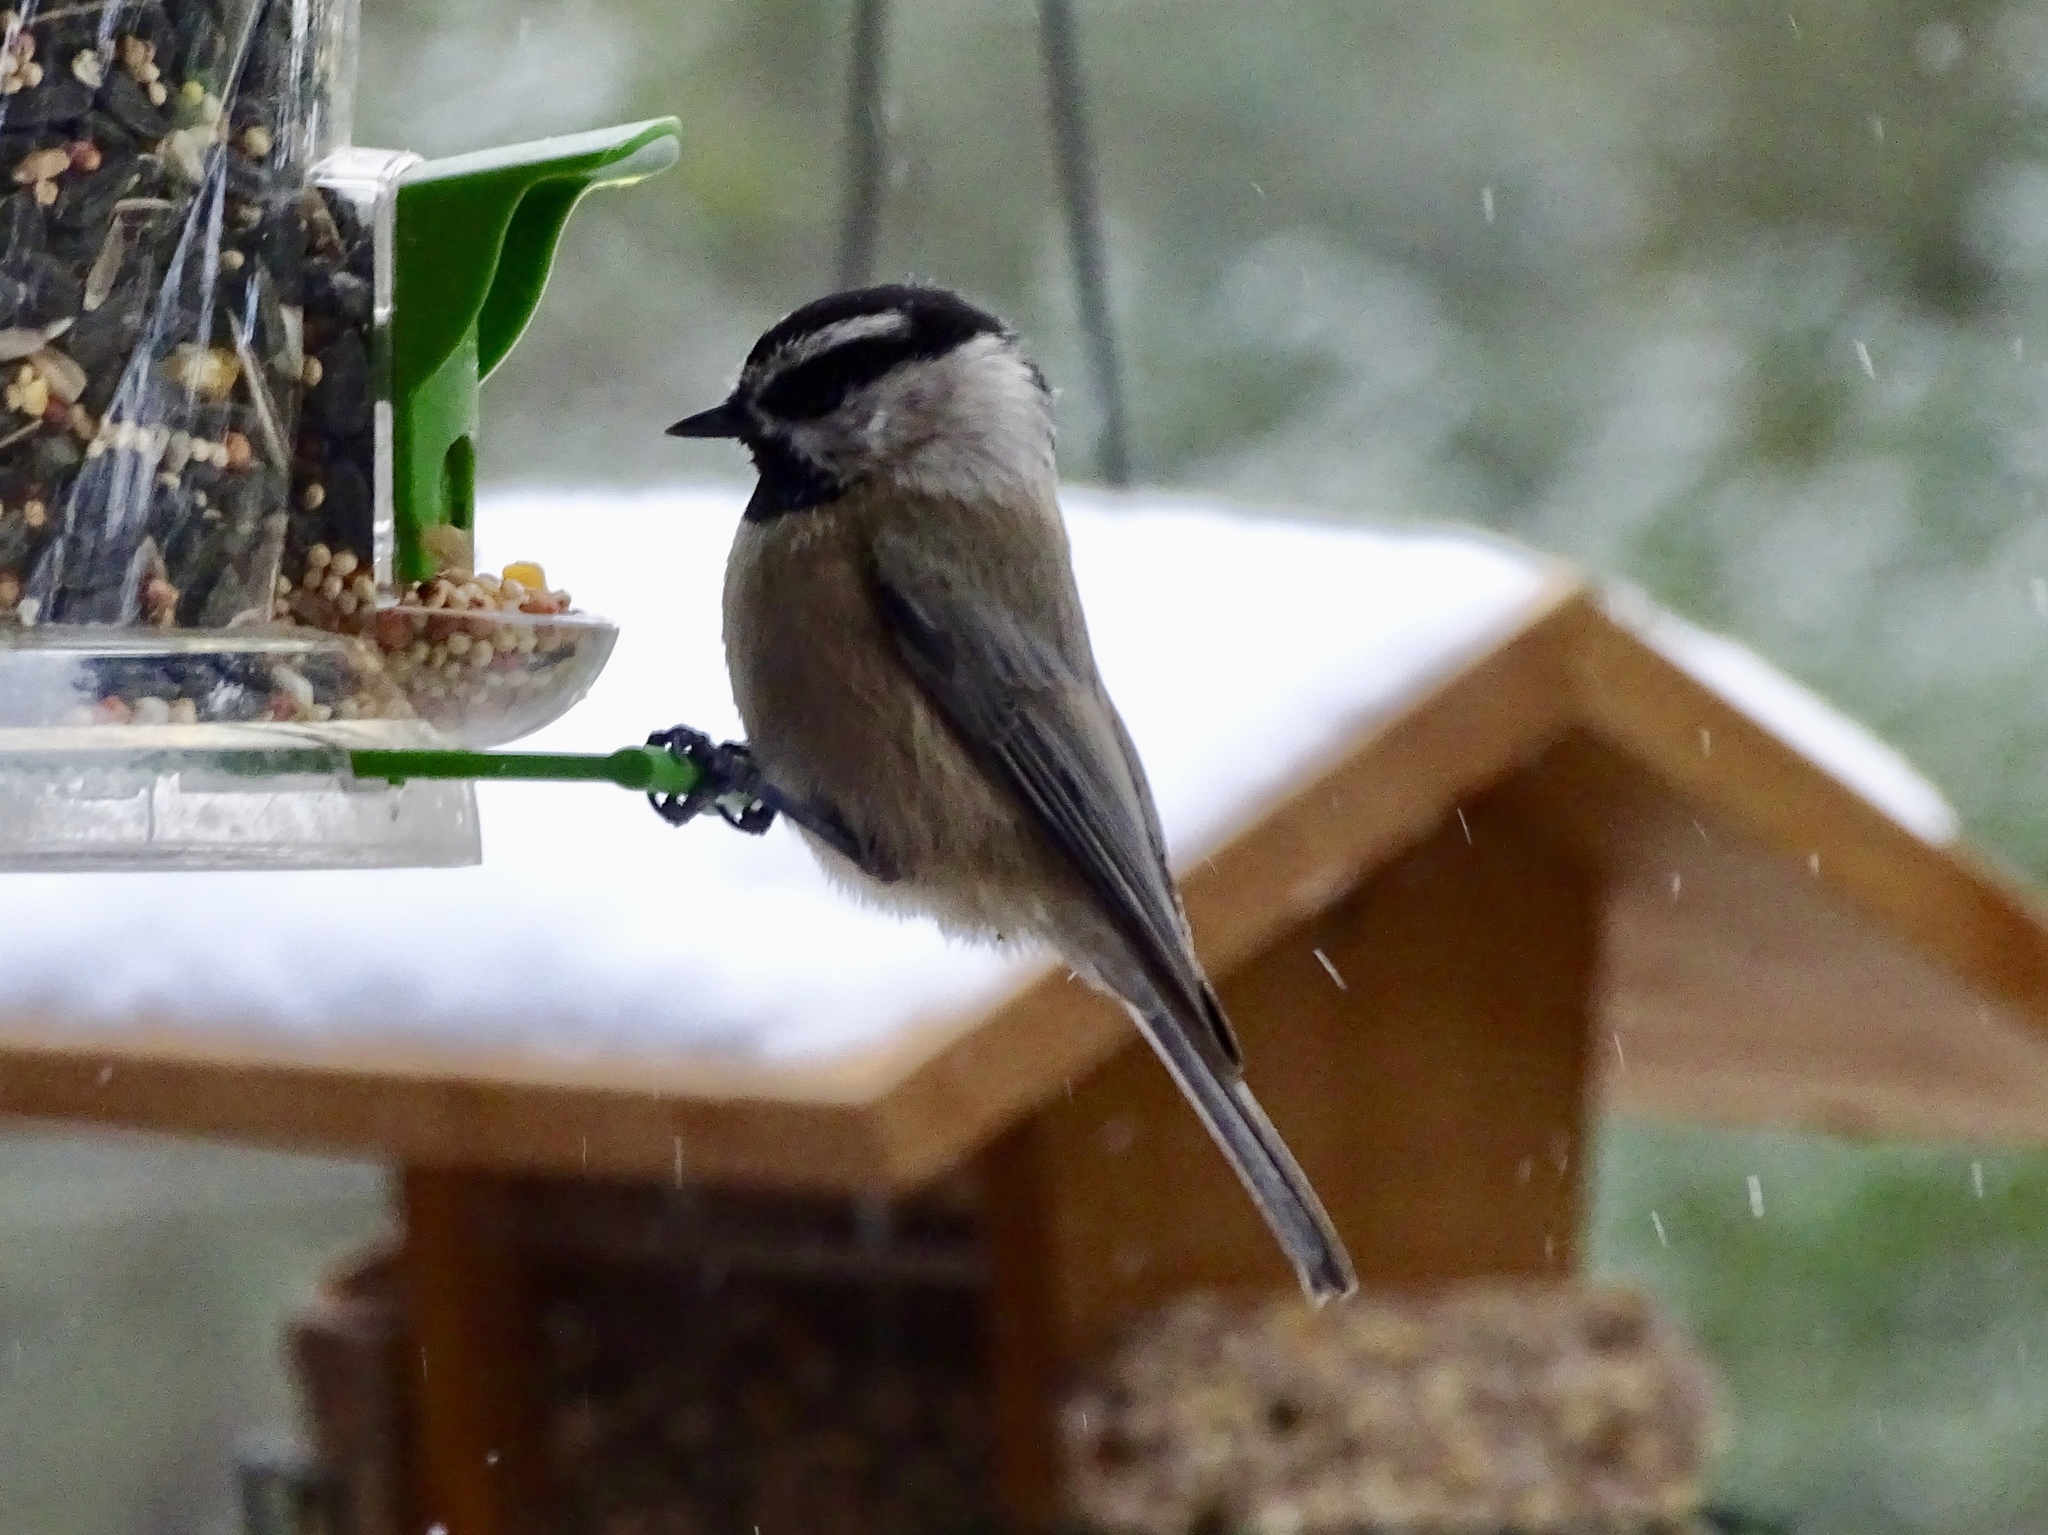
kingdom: Animalia
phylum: Chordata
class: Aves
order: Passeriformes
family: Paridae
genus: Poecile
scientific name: Poecile gambeli
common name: Mountain chickadee
